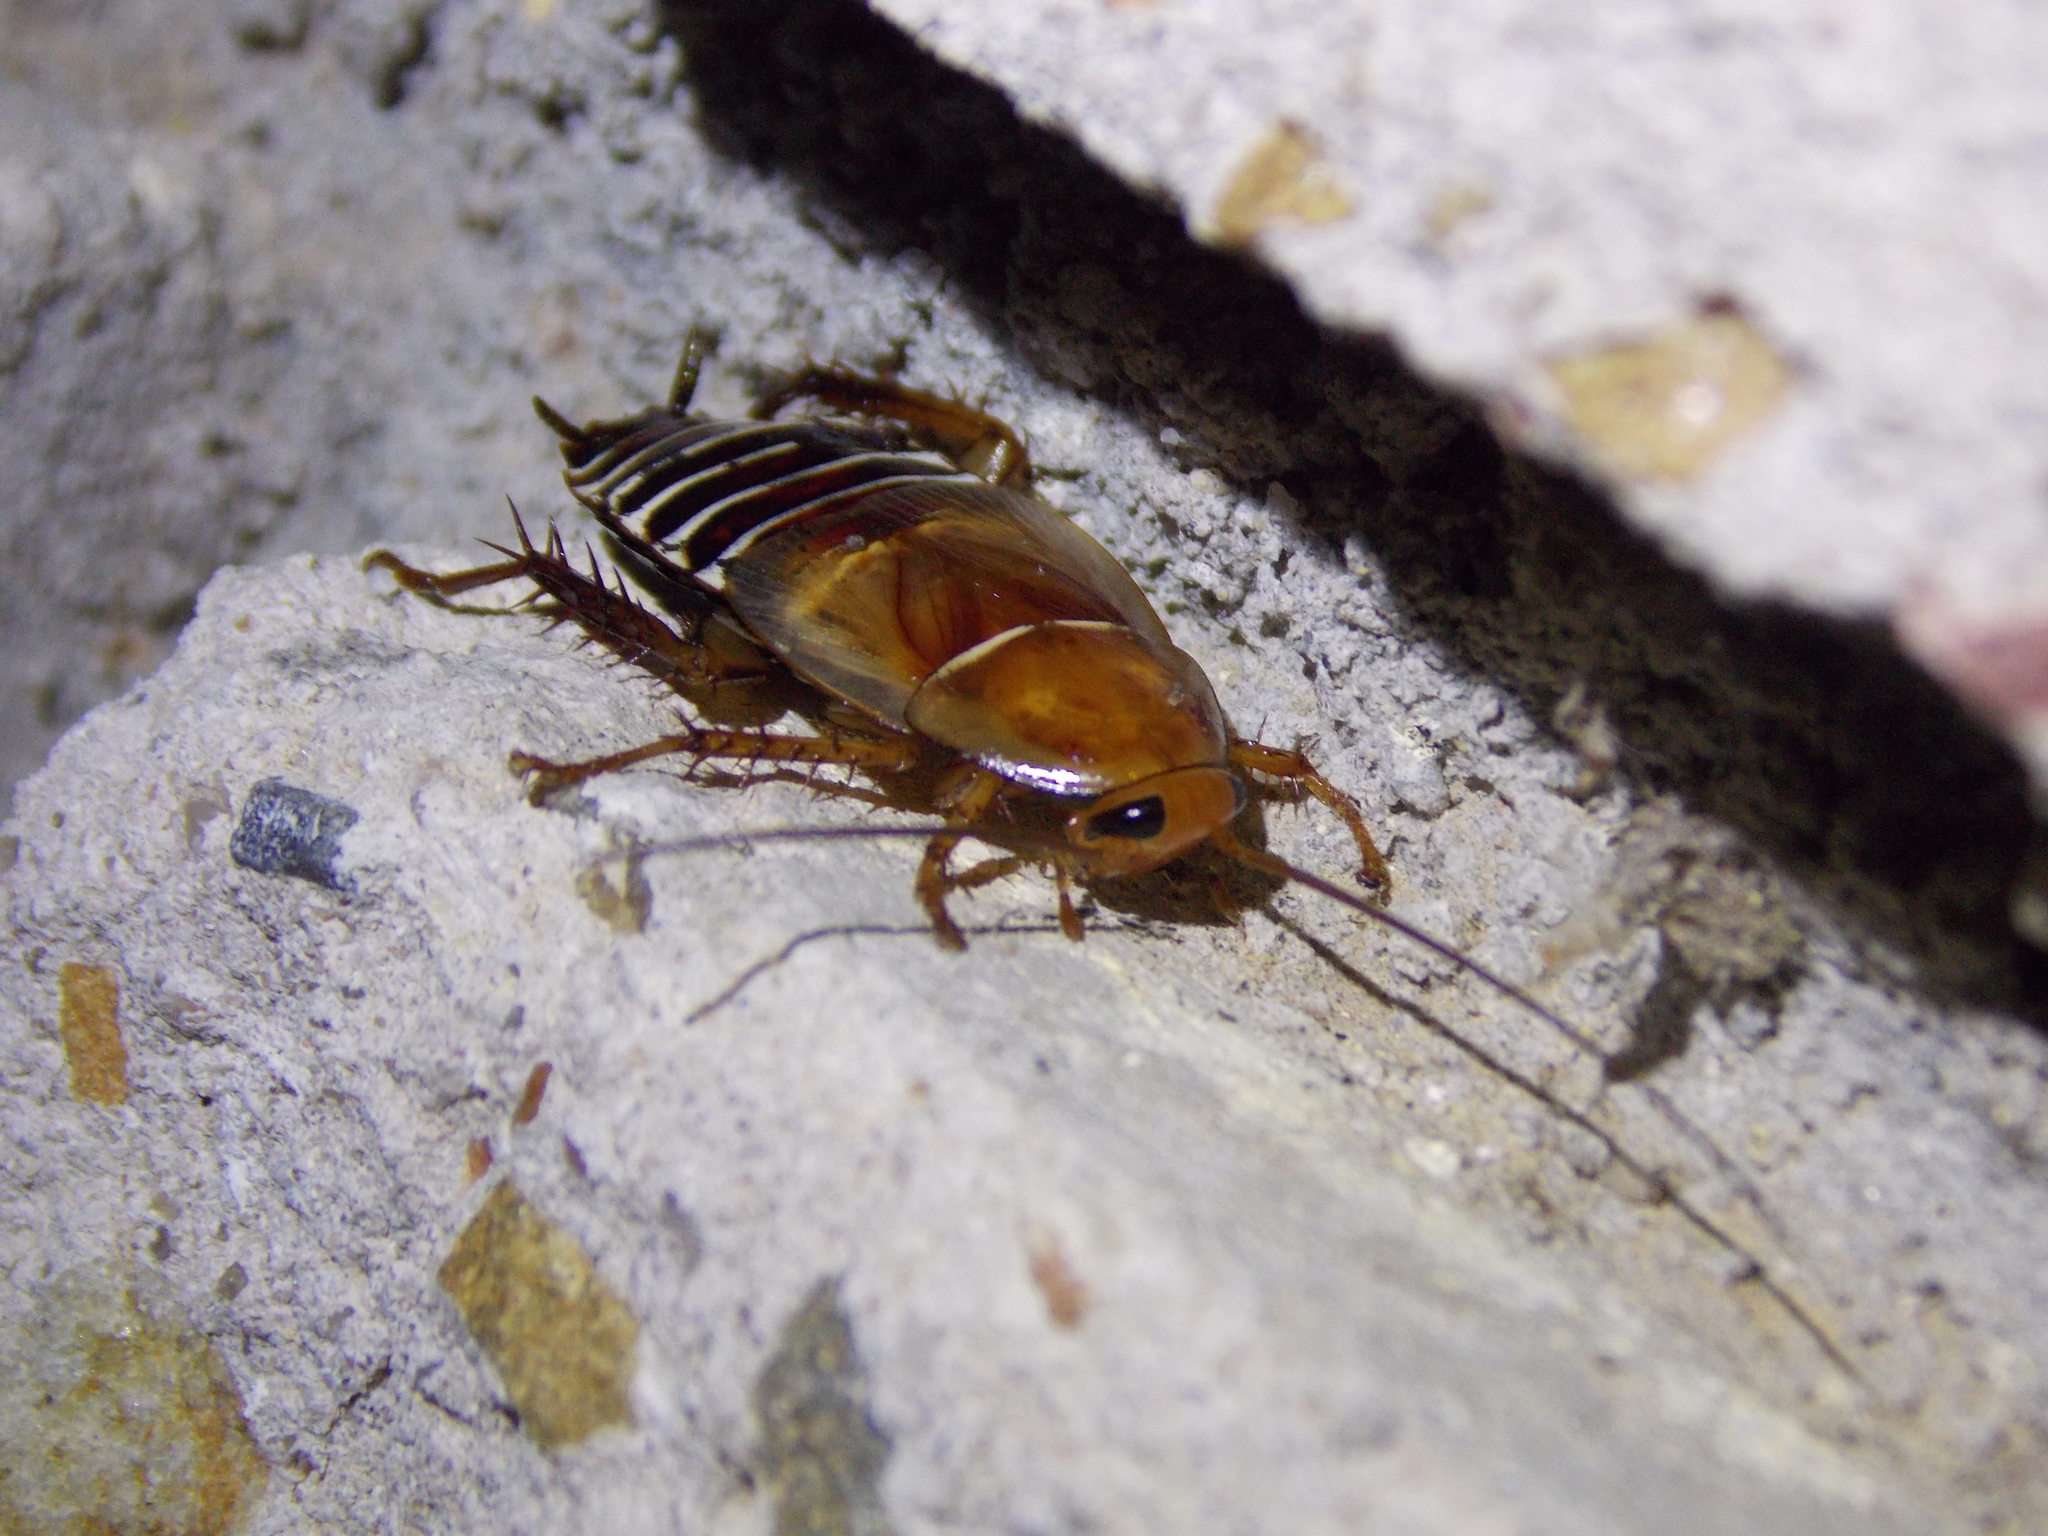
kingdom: Animalia
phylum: Arthropoda
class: Insecta
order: Blattodea
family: Ectobiidae
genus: Temnopteryx
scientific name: Temnopteryx phalerata
